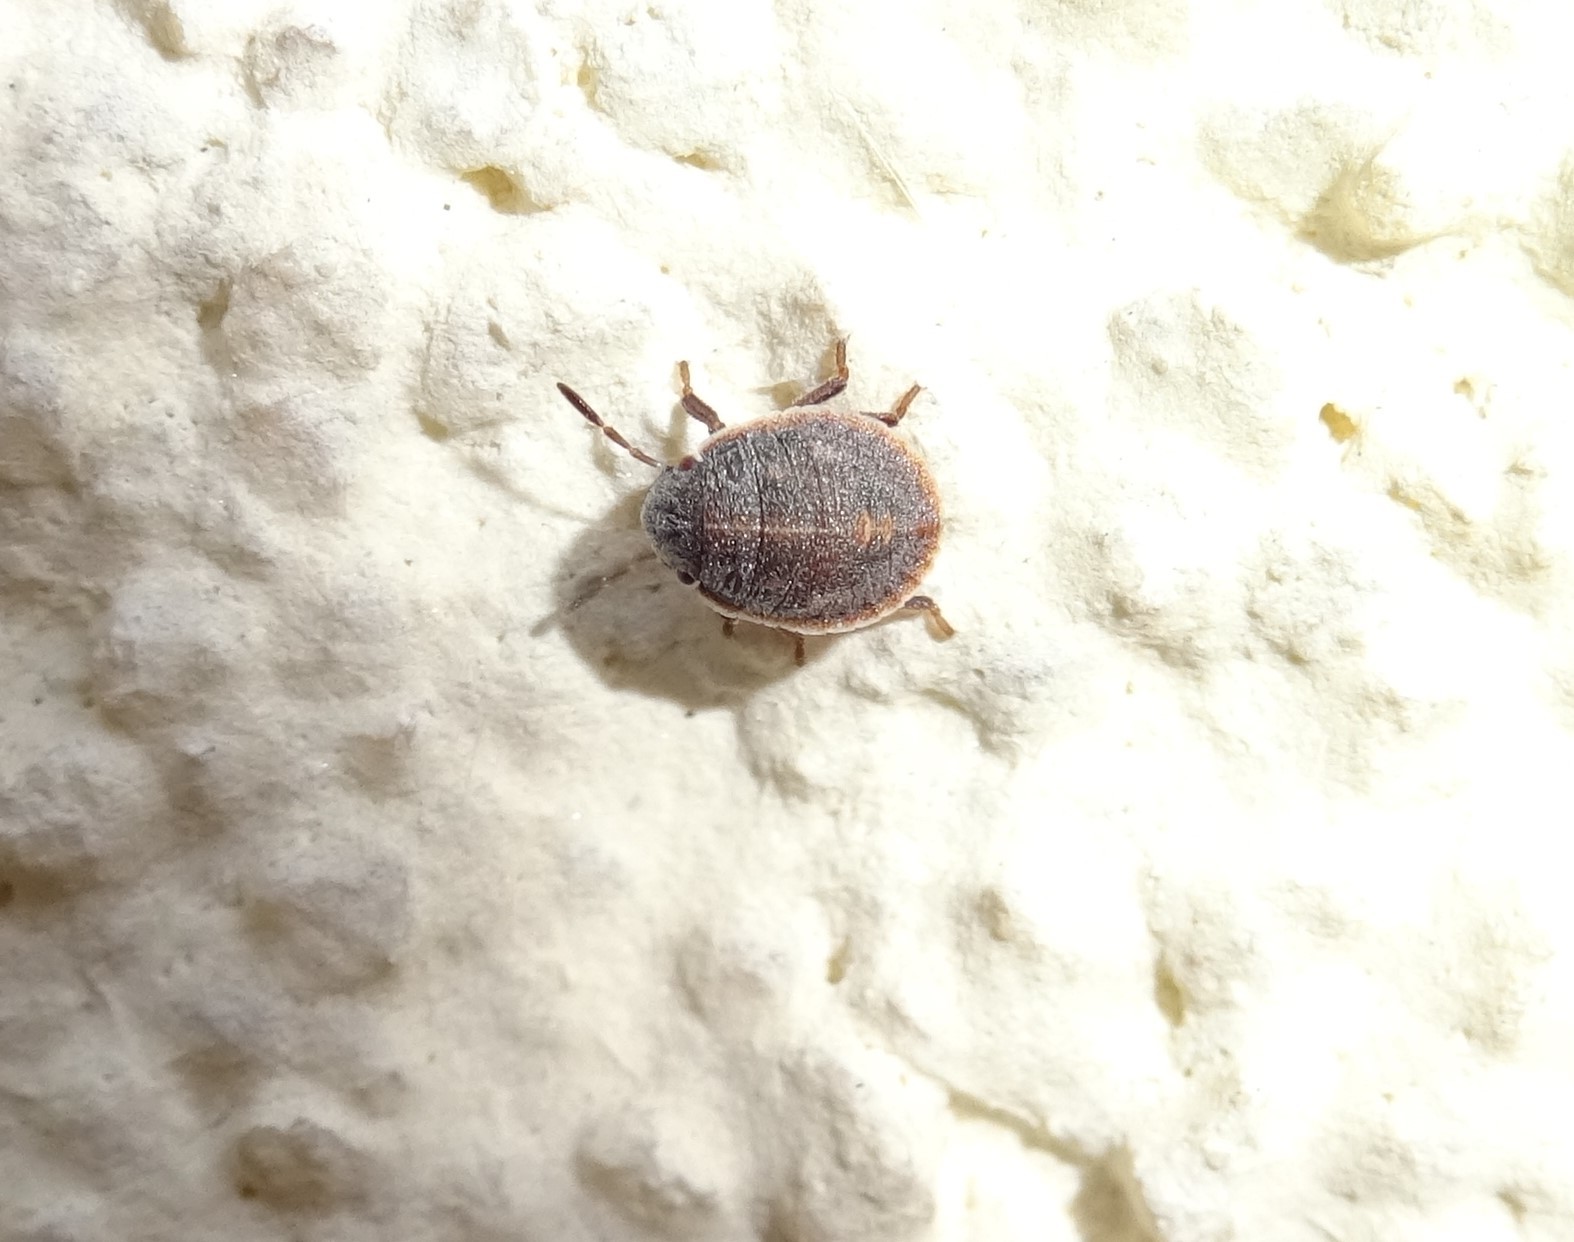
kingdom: Animalia
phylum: Arthropoda
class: Insecta
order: Hemiptera
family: Scutelleridae
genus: Odontotarsus
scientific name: Odontotarsus purpureolineatus
